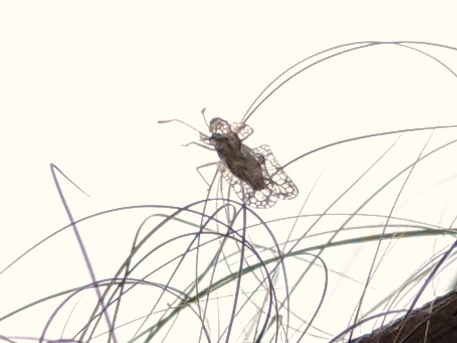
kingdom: Animalia
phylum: Arthropoda
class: Insecta
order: Hemiptera
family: Tingidae
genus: Corythucha
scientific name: Corythucha
